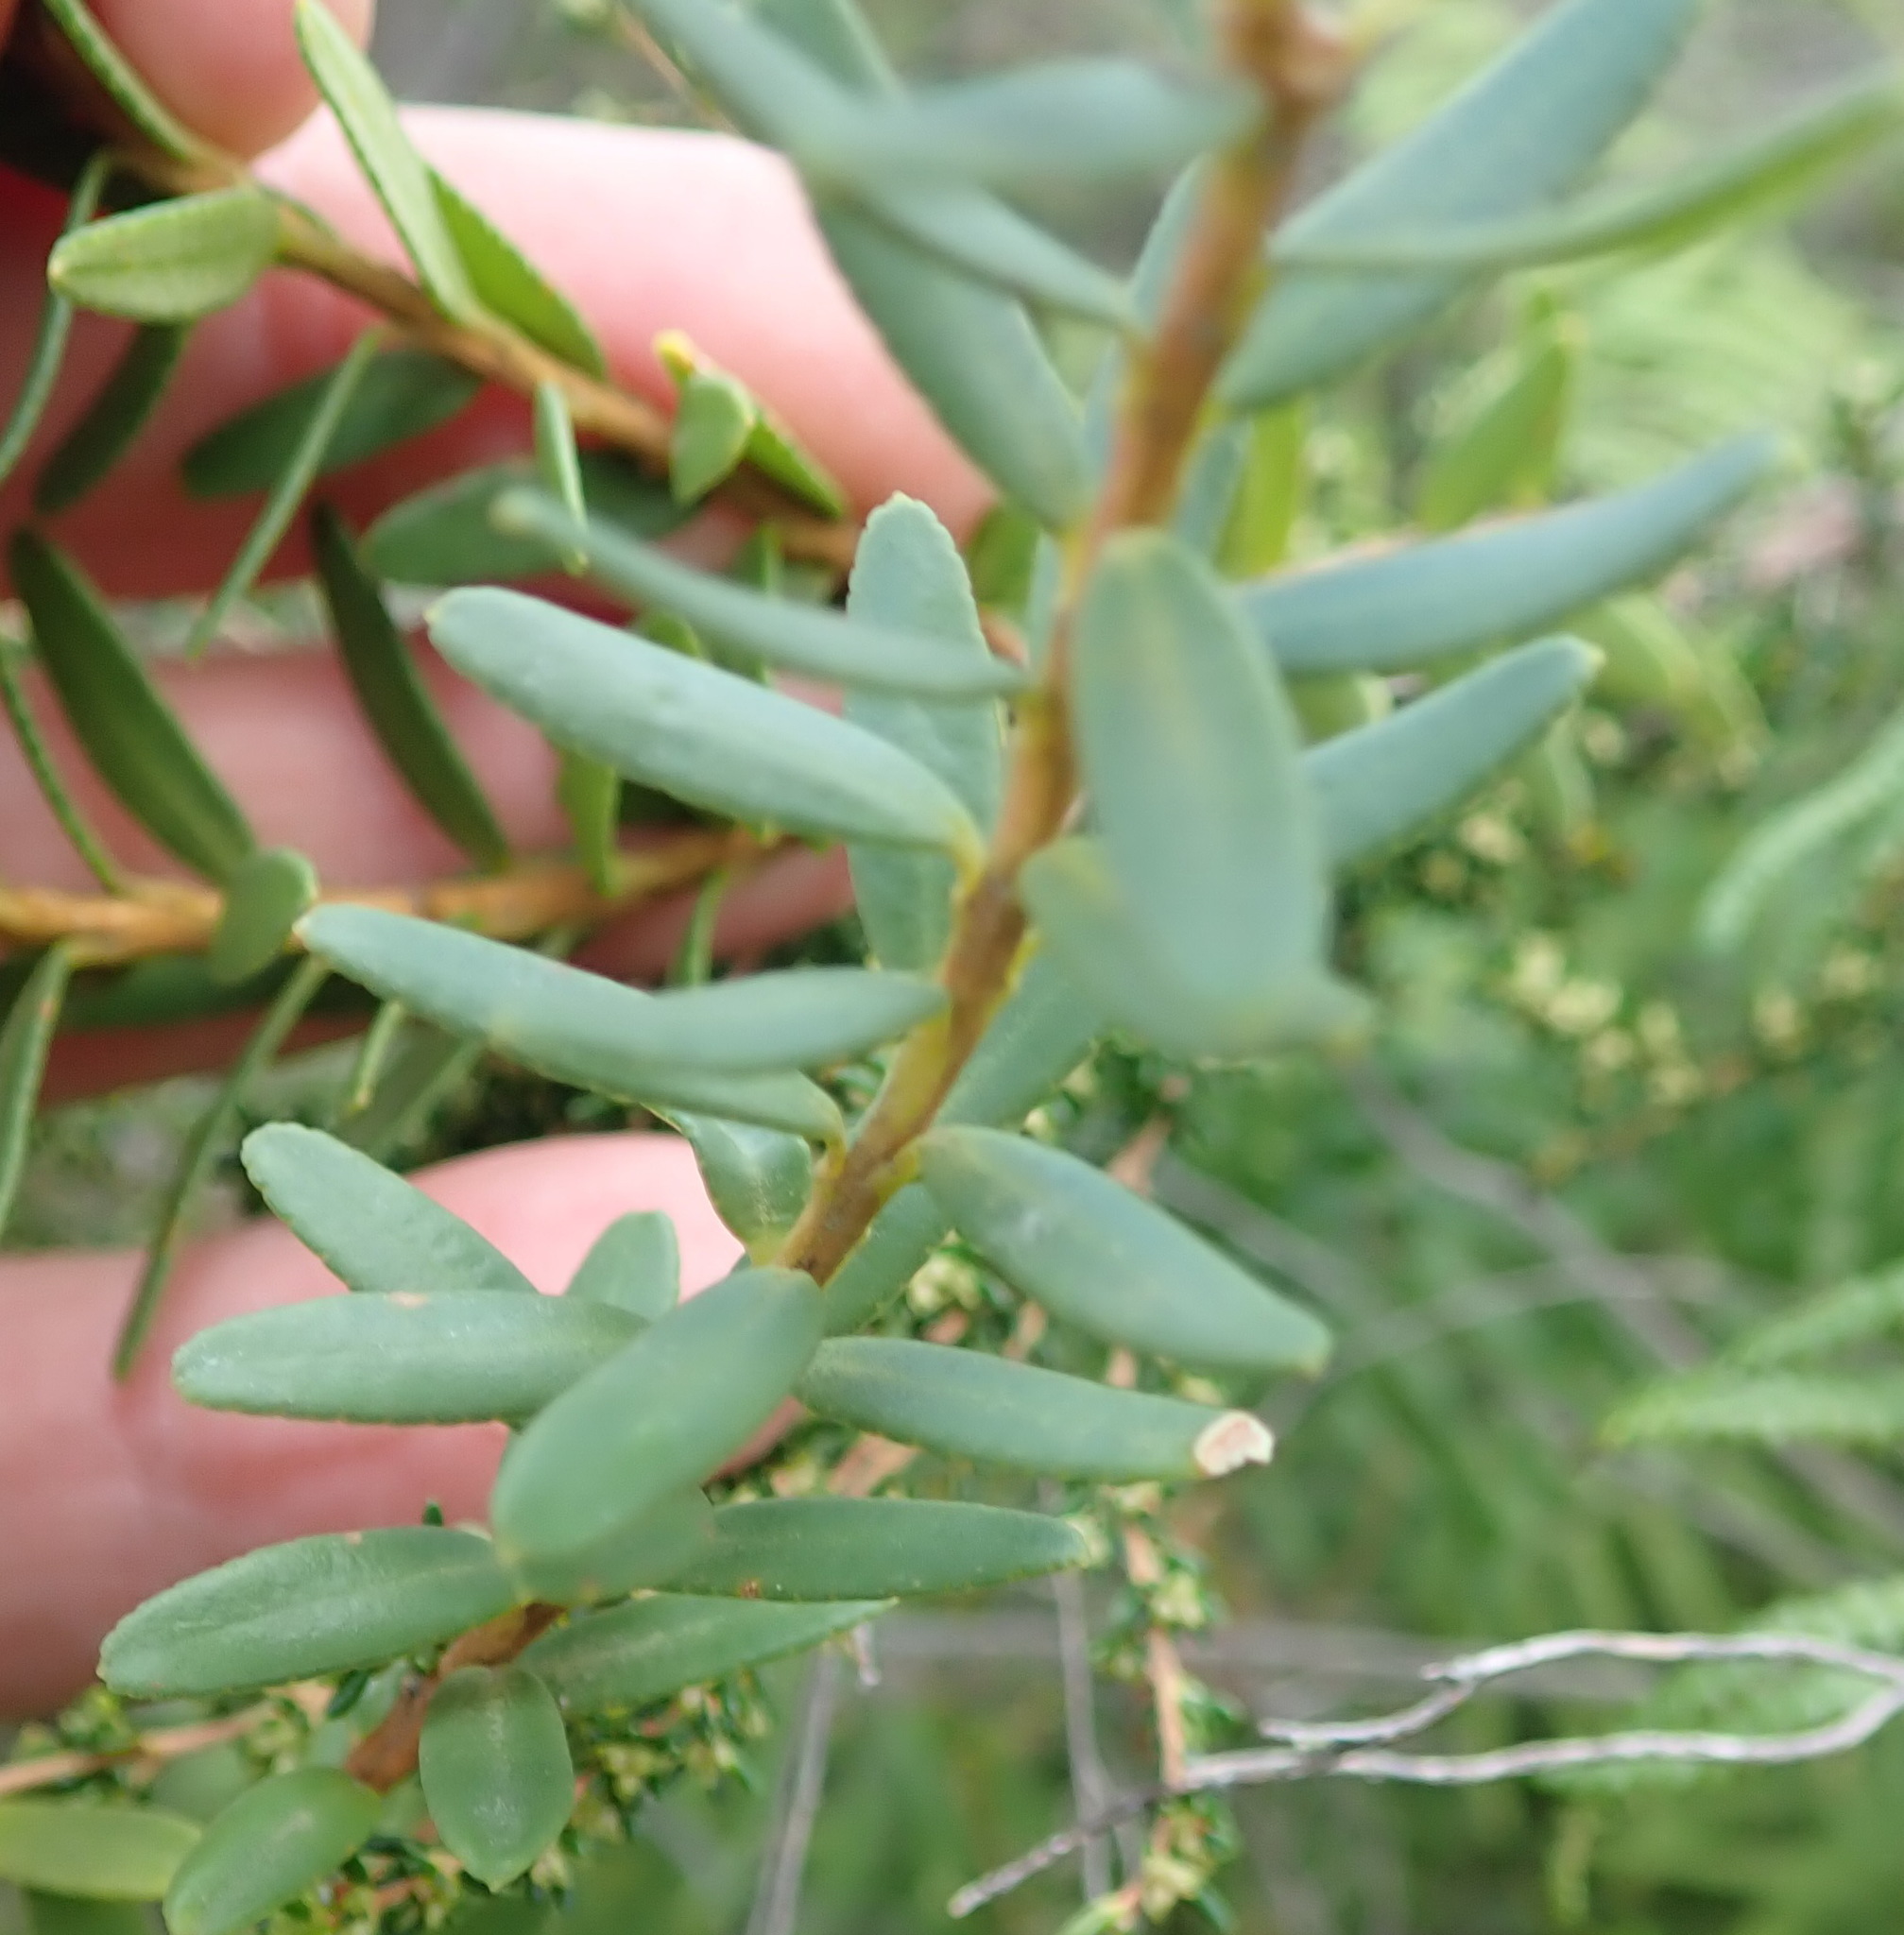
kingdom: Plantae
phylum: Tracheophyta
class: Magnoliopsida
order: Sapindales
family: Rutaceae
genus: Adenandra
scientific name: Adenandra fragrans
